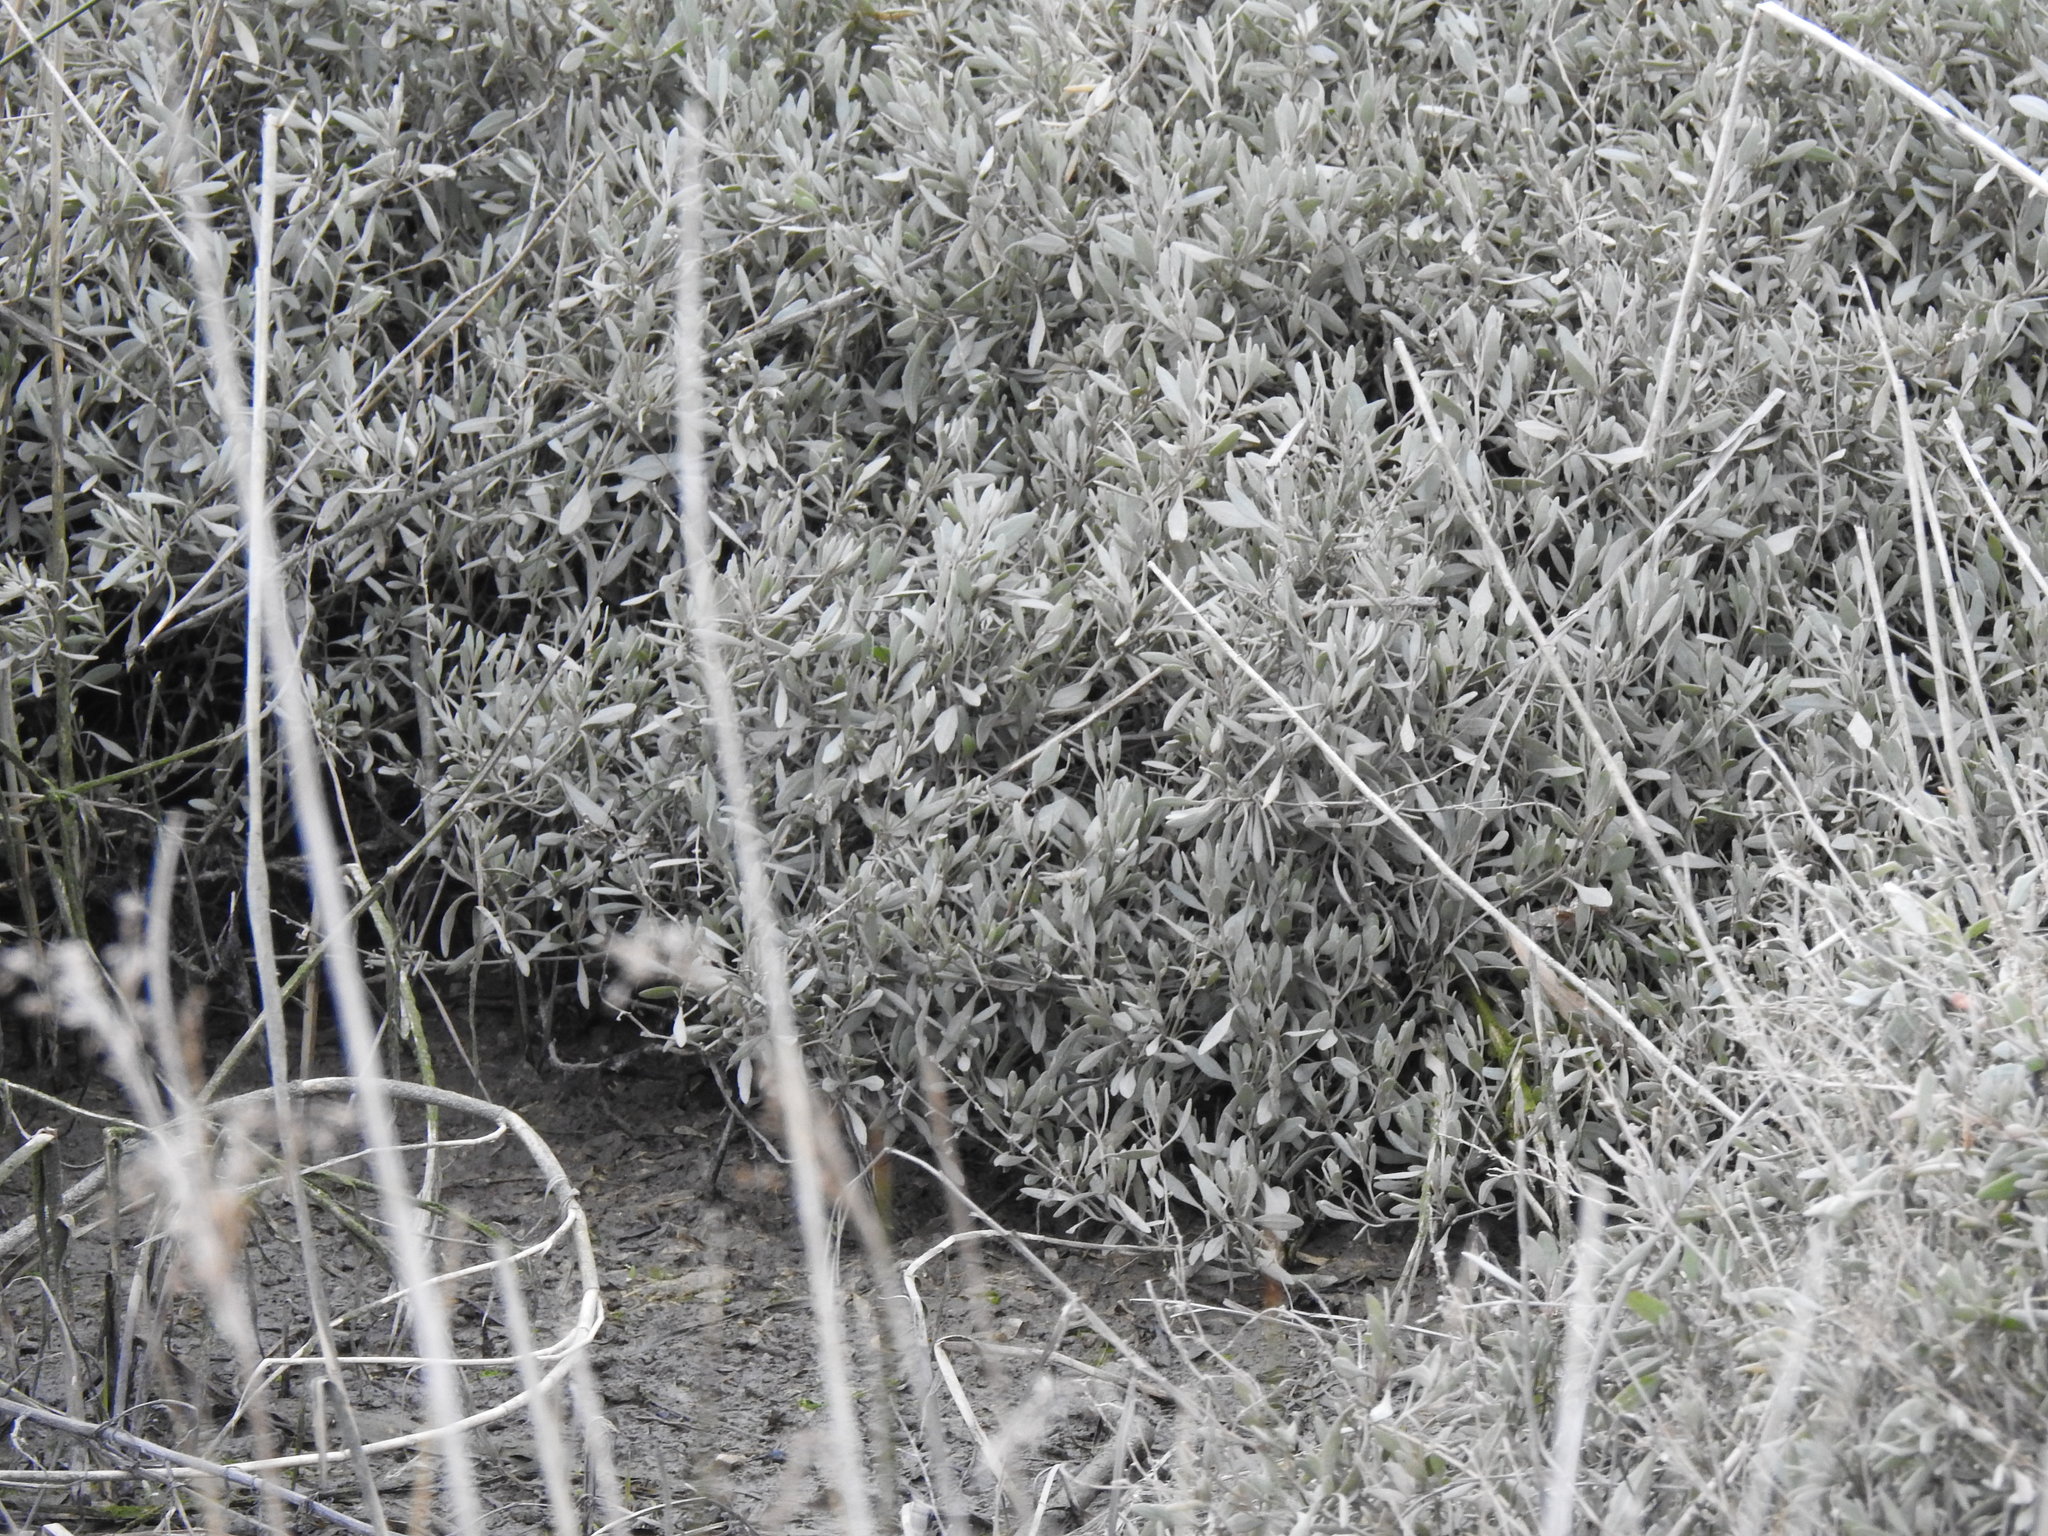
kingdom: Plantae
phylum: Tracheophyta
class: Magnoliopsida
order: Caryophyllales
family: Amaranthaceae
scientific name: Amaranthaceae
